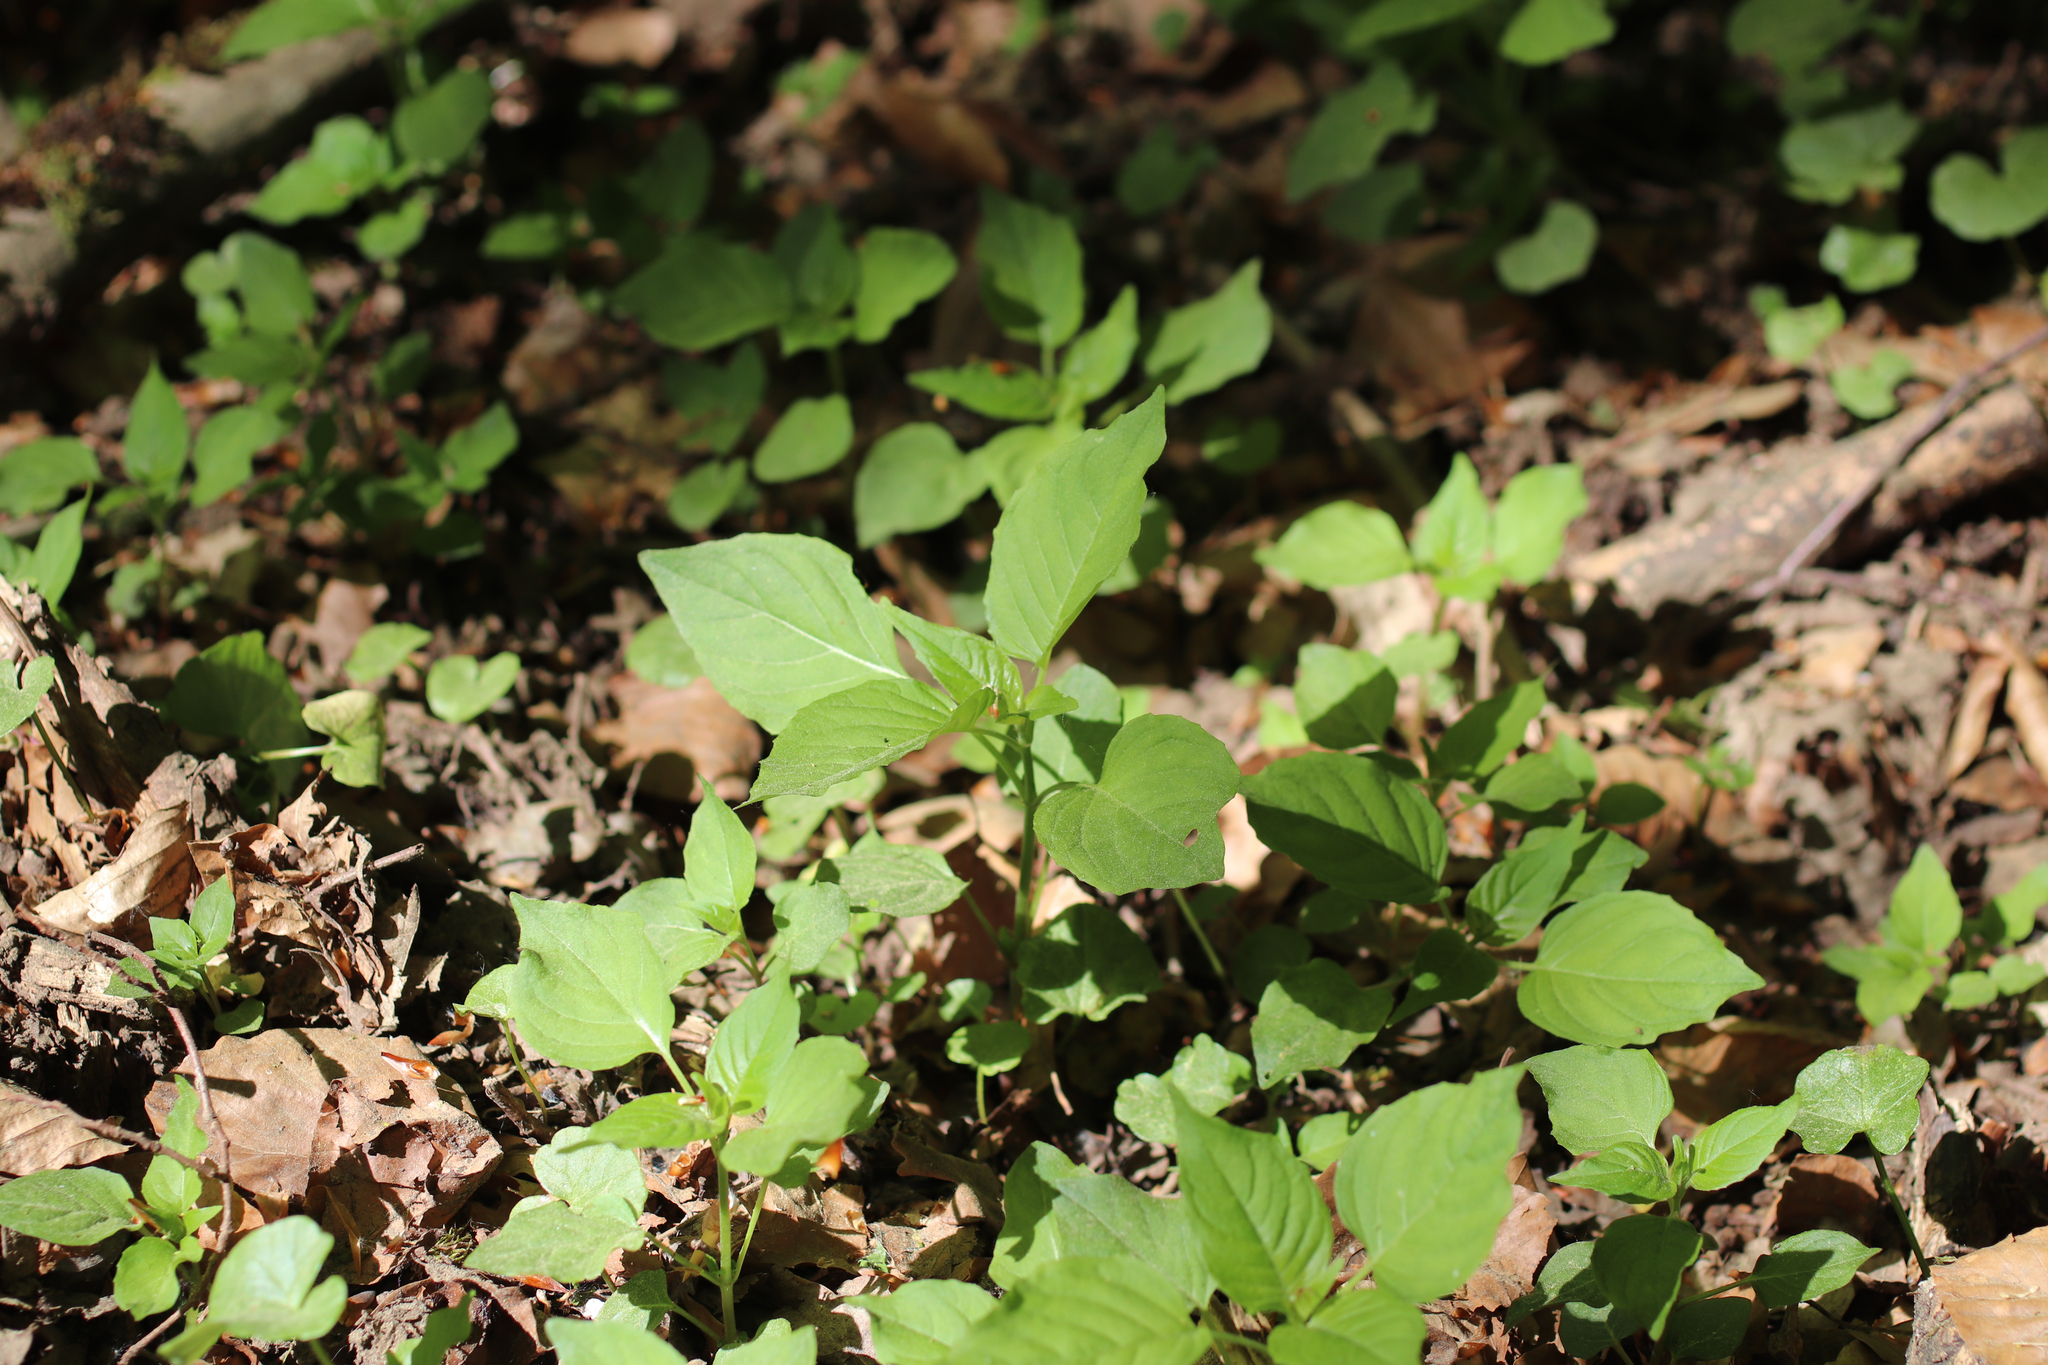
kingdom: Plantae
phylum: Tracheophyta
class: Magnoliopsida
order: Myrtales
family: Onagraceae
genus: Circaea
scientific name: Circaea lutetiana
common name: Enchanter's-nightshade
